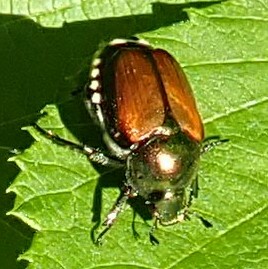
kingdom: Animalia
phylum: Arthropoda
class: Insecta
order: Coleoptera
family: Scarabaeidae
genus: Popillia
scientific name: Popillia japonica
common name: Japanese beetle
